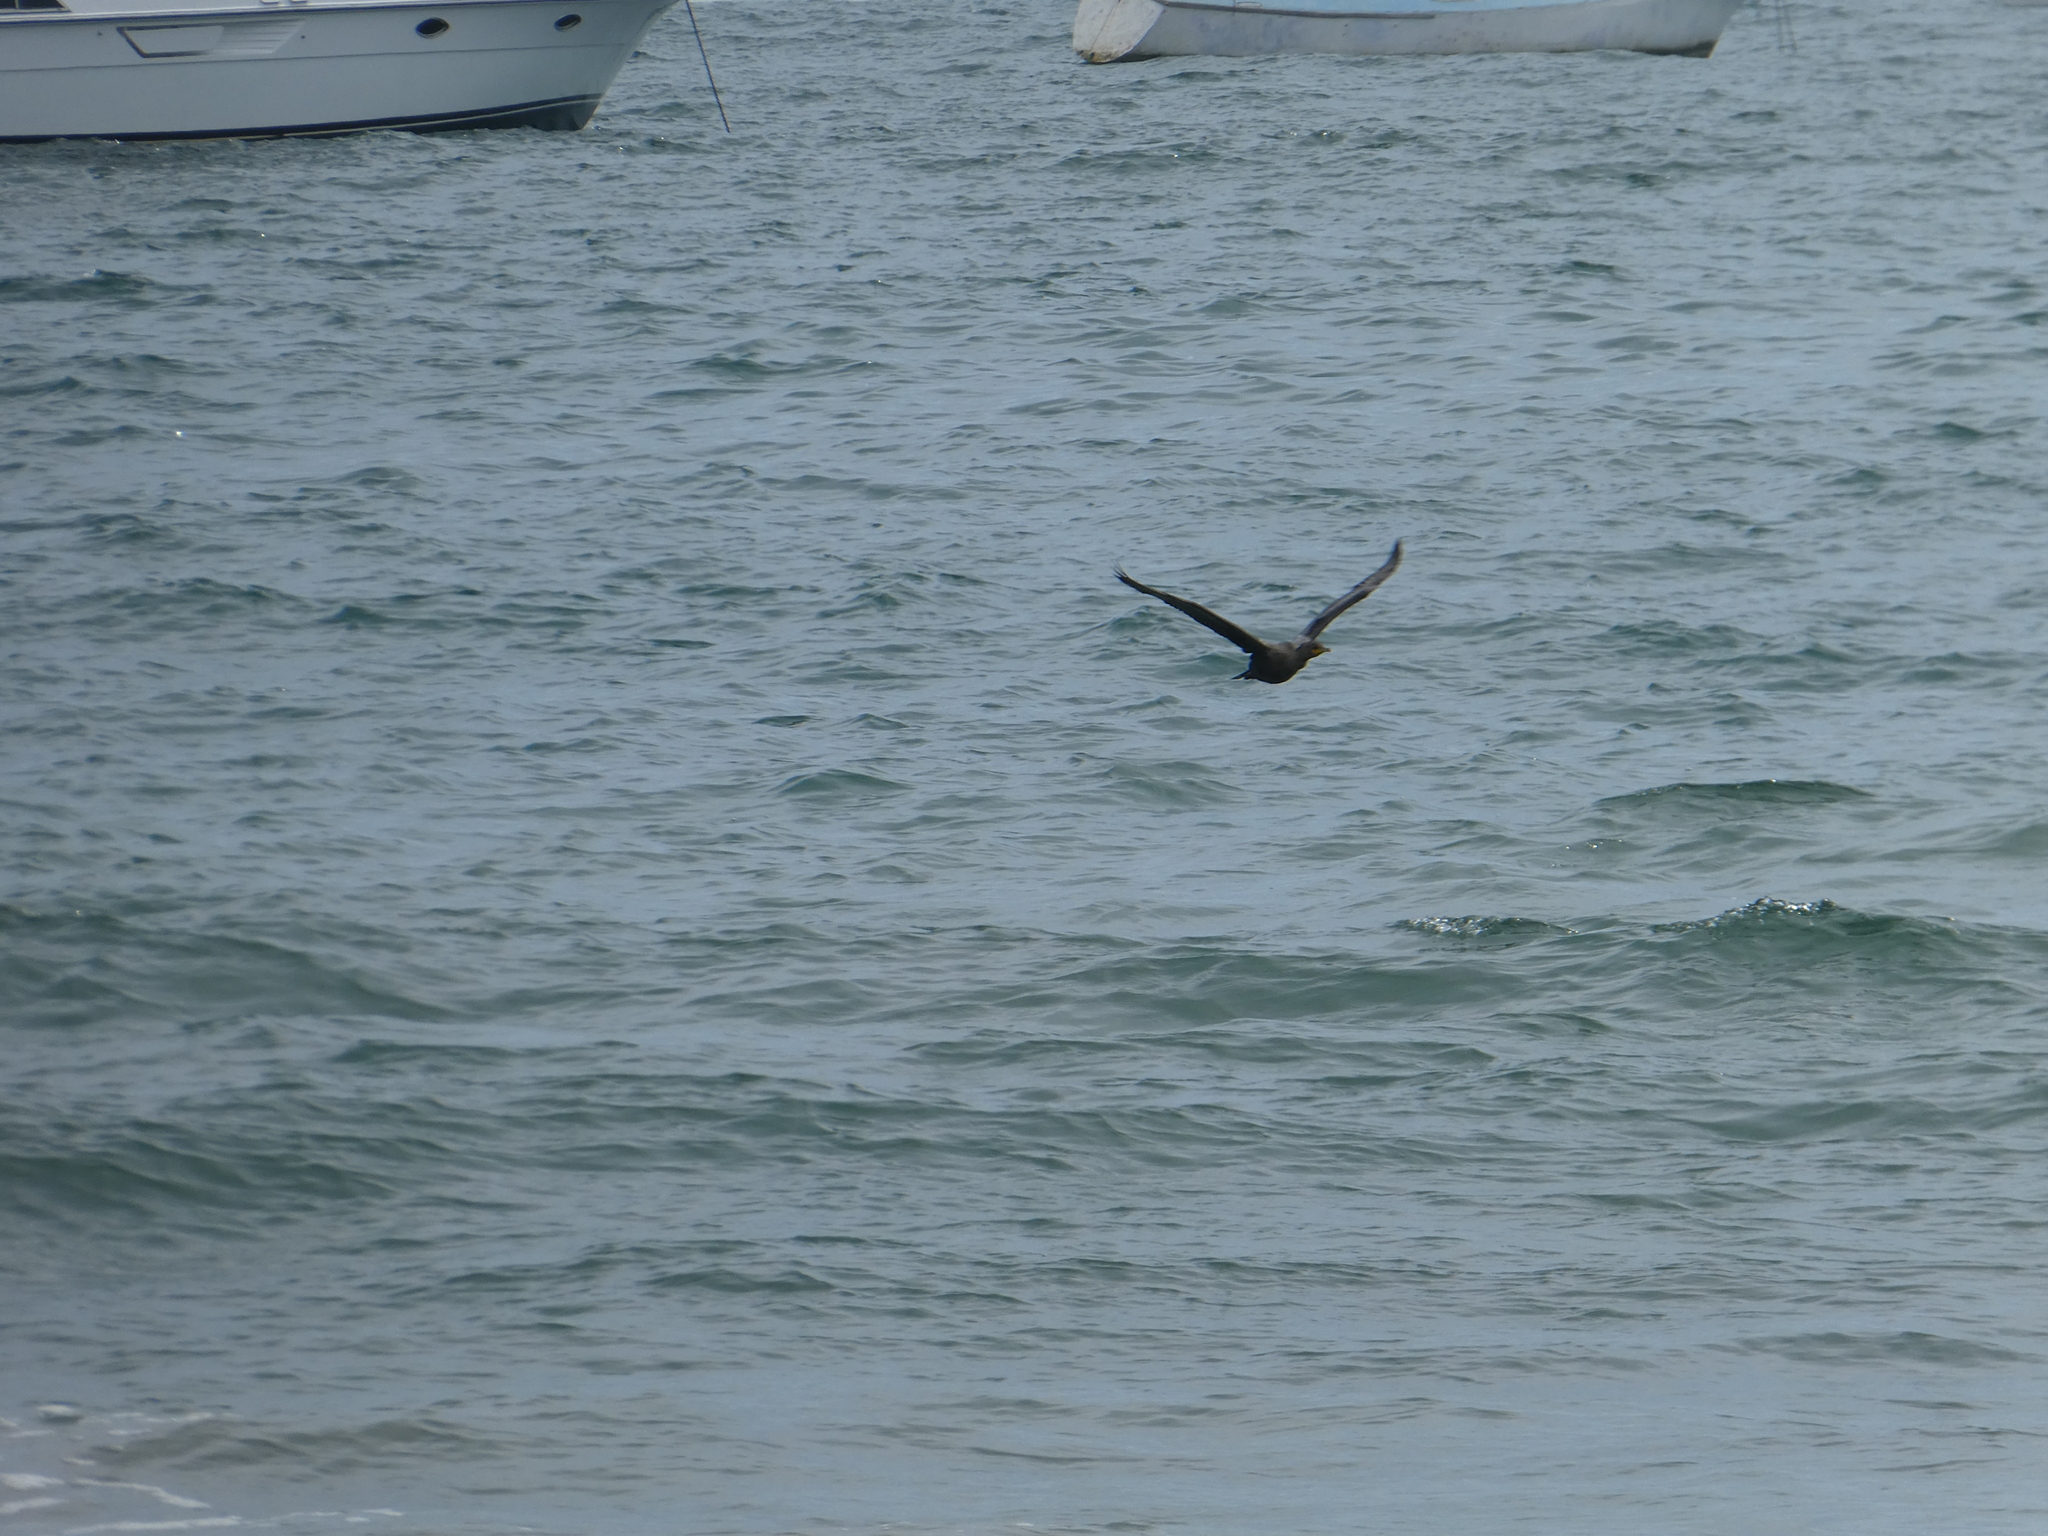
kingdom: Animalia
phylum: Chordata
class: Aves
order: Suliformes
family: Phalacrocoracidae
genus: Phalacrocorax
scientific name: Phalacrocorax auritus
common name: Double-crested cormorant
